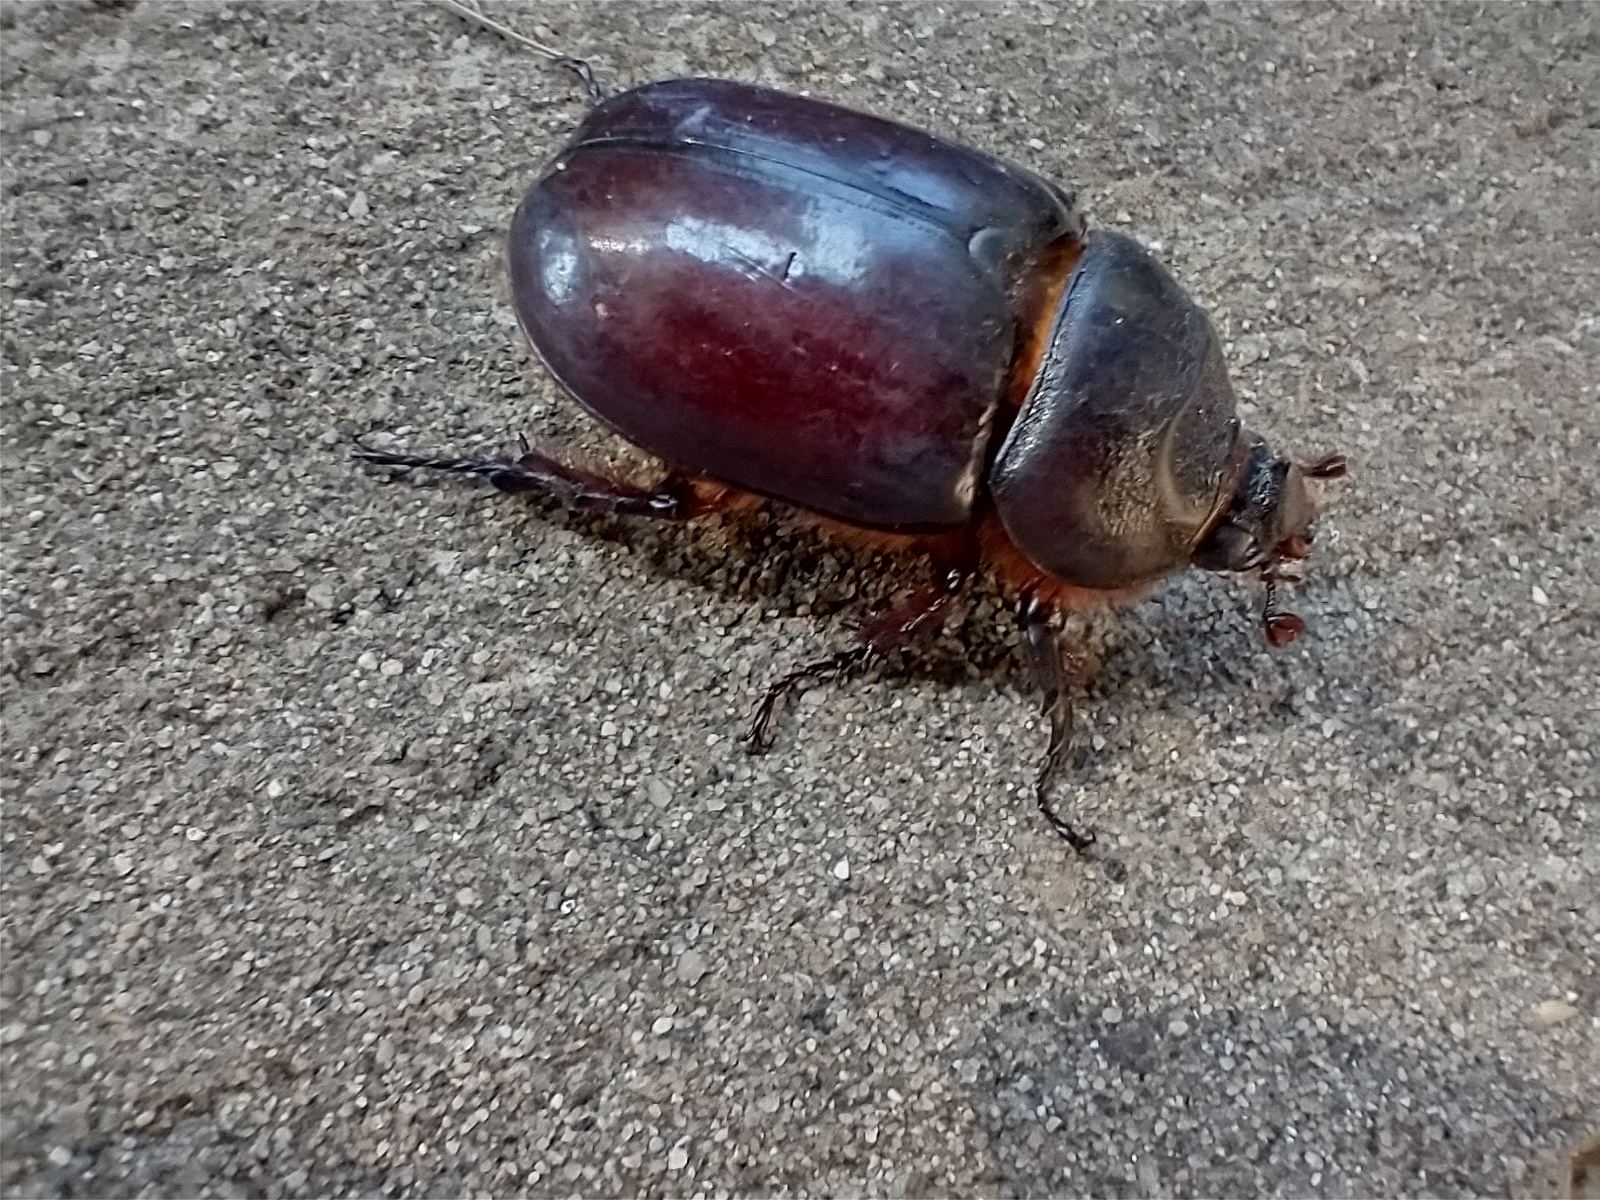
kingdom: Animalia
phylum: Arthropoda
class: Insecta
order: Coleoptera
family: Scarabaeidae
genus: Oryctes
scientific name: Oryctes nasicornis
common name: European rhinoceros beetle
